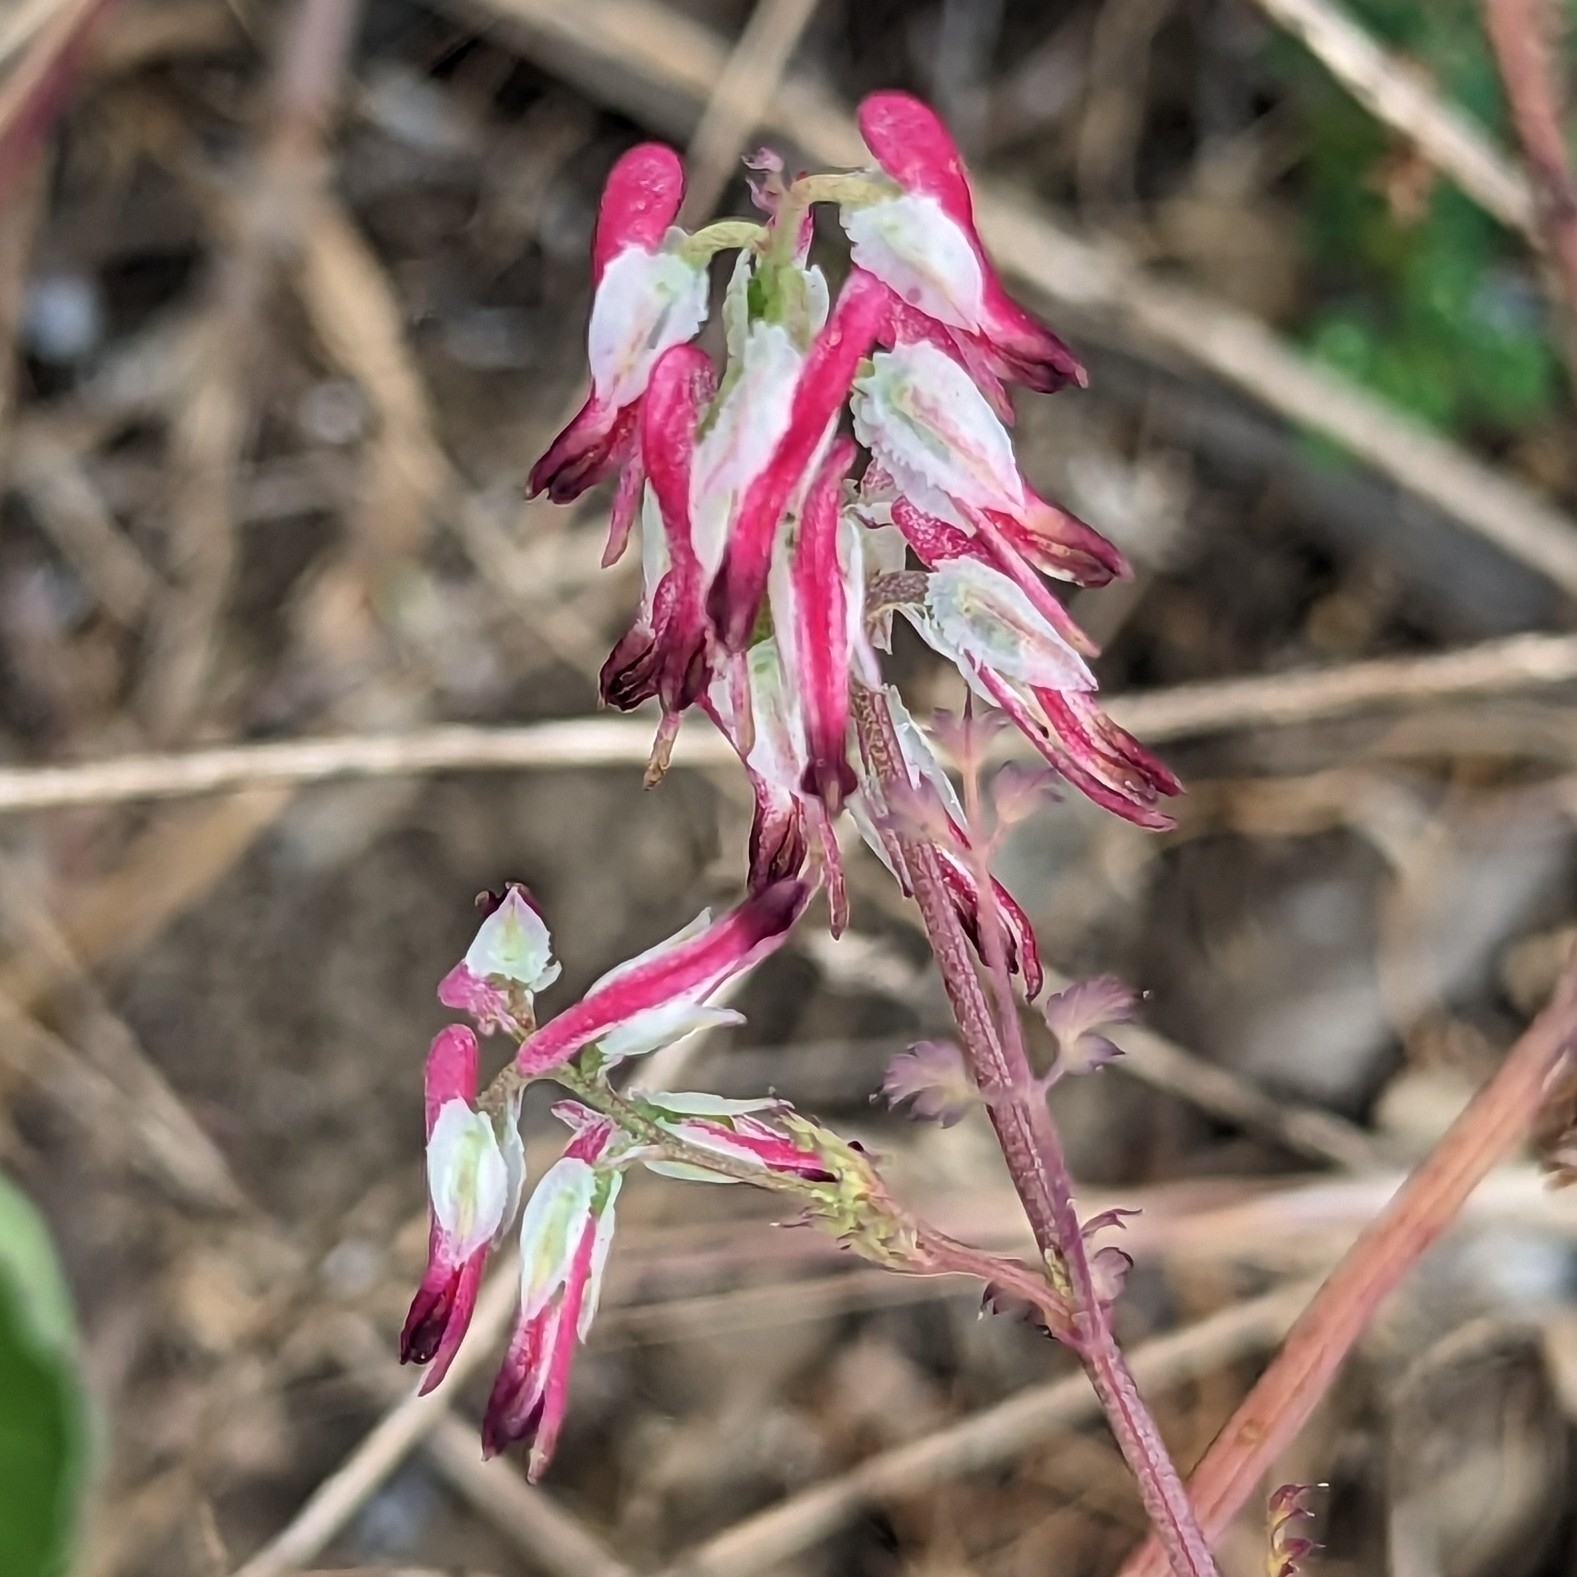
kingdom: Plantae
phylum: Tracheophyta
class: Magnoliopsida
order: Ranunculales
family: Papaveraceae
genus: Fumaria
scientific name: Fumaria capreolata
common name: White ramping-fumitory
